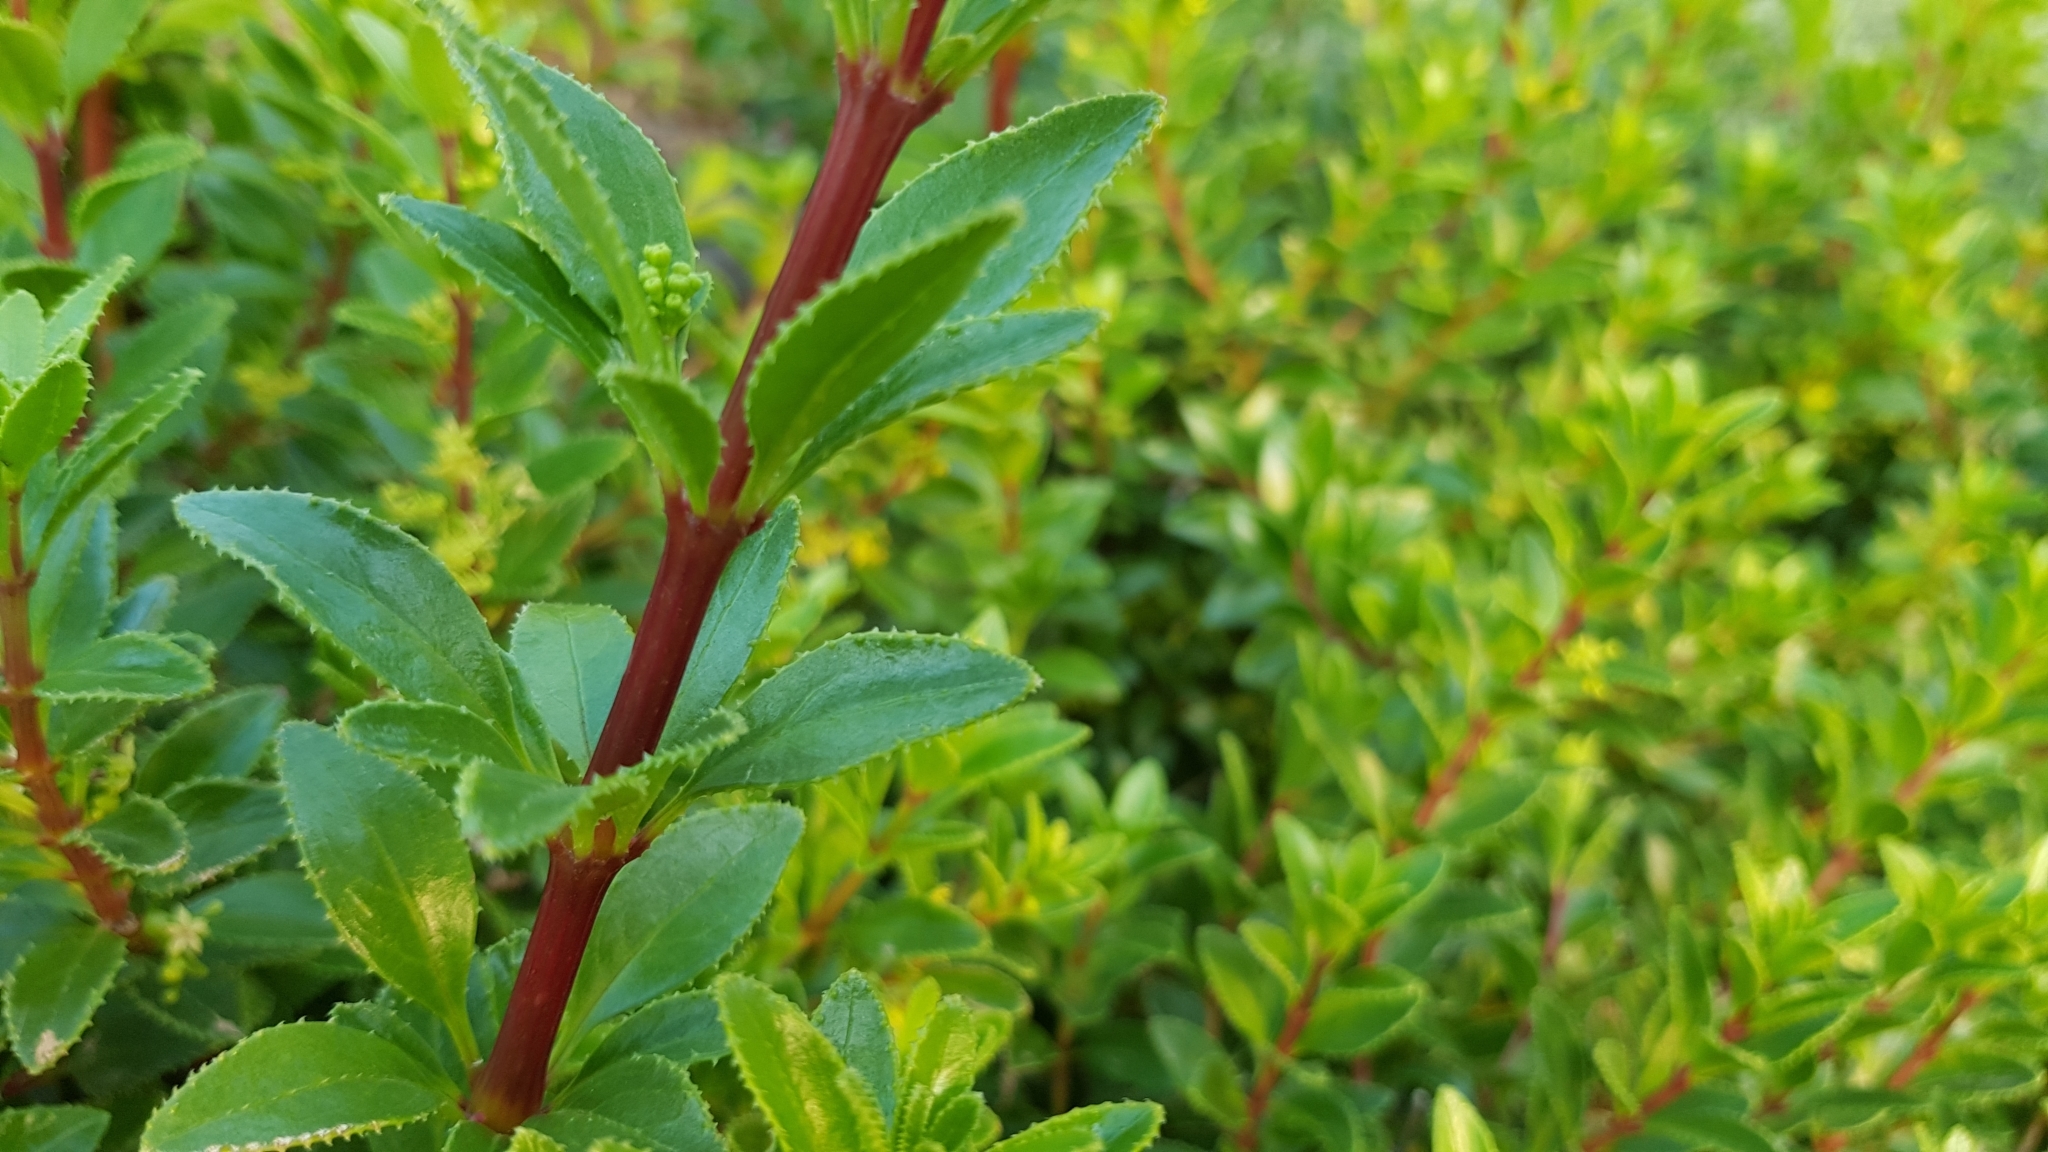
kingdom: Plantae
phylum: Tracheophyta
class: Magnoliopsida
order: Gentianales
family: Rubiaceae
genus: Rubia
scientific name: Rubia fruticosa
